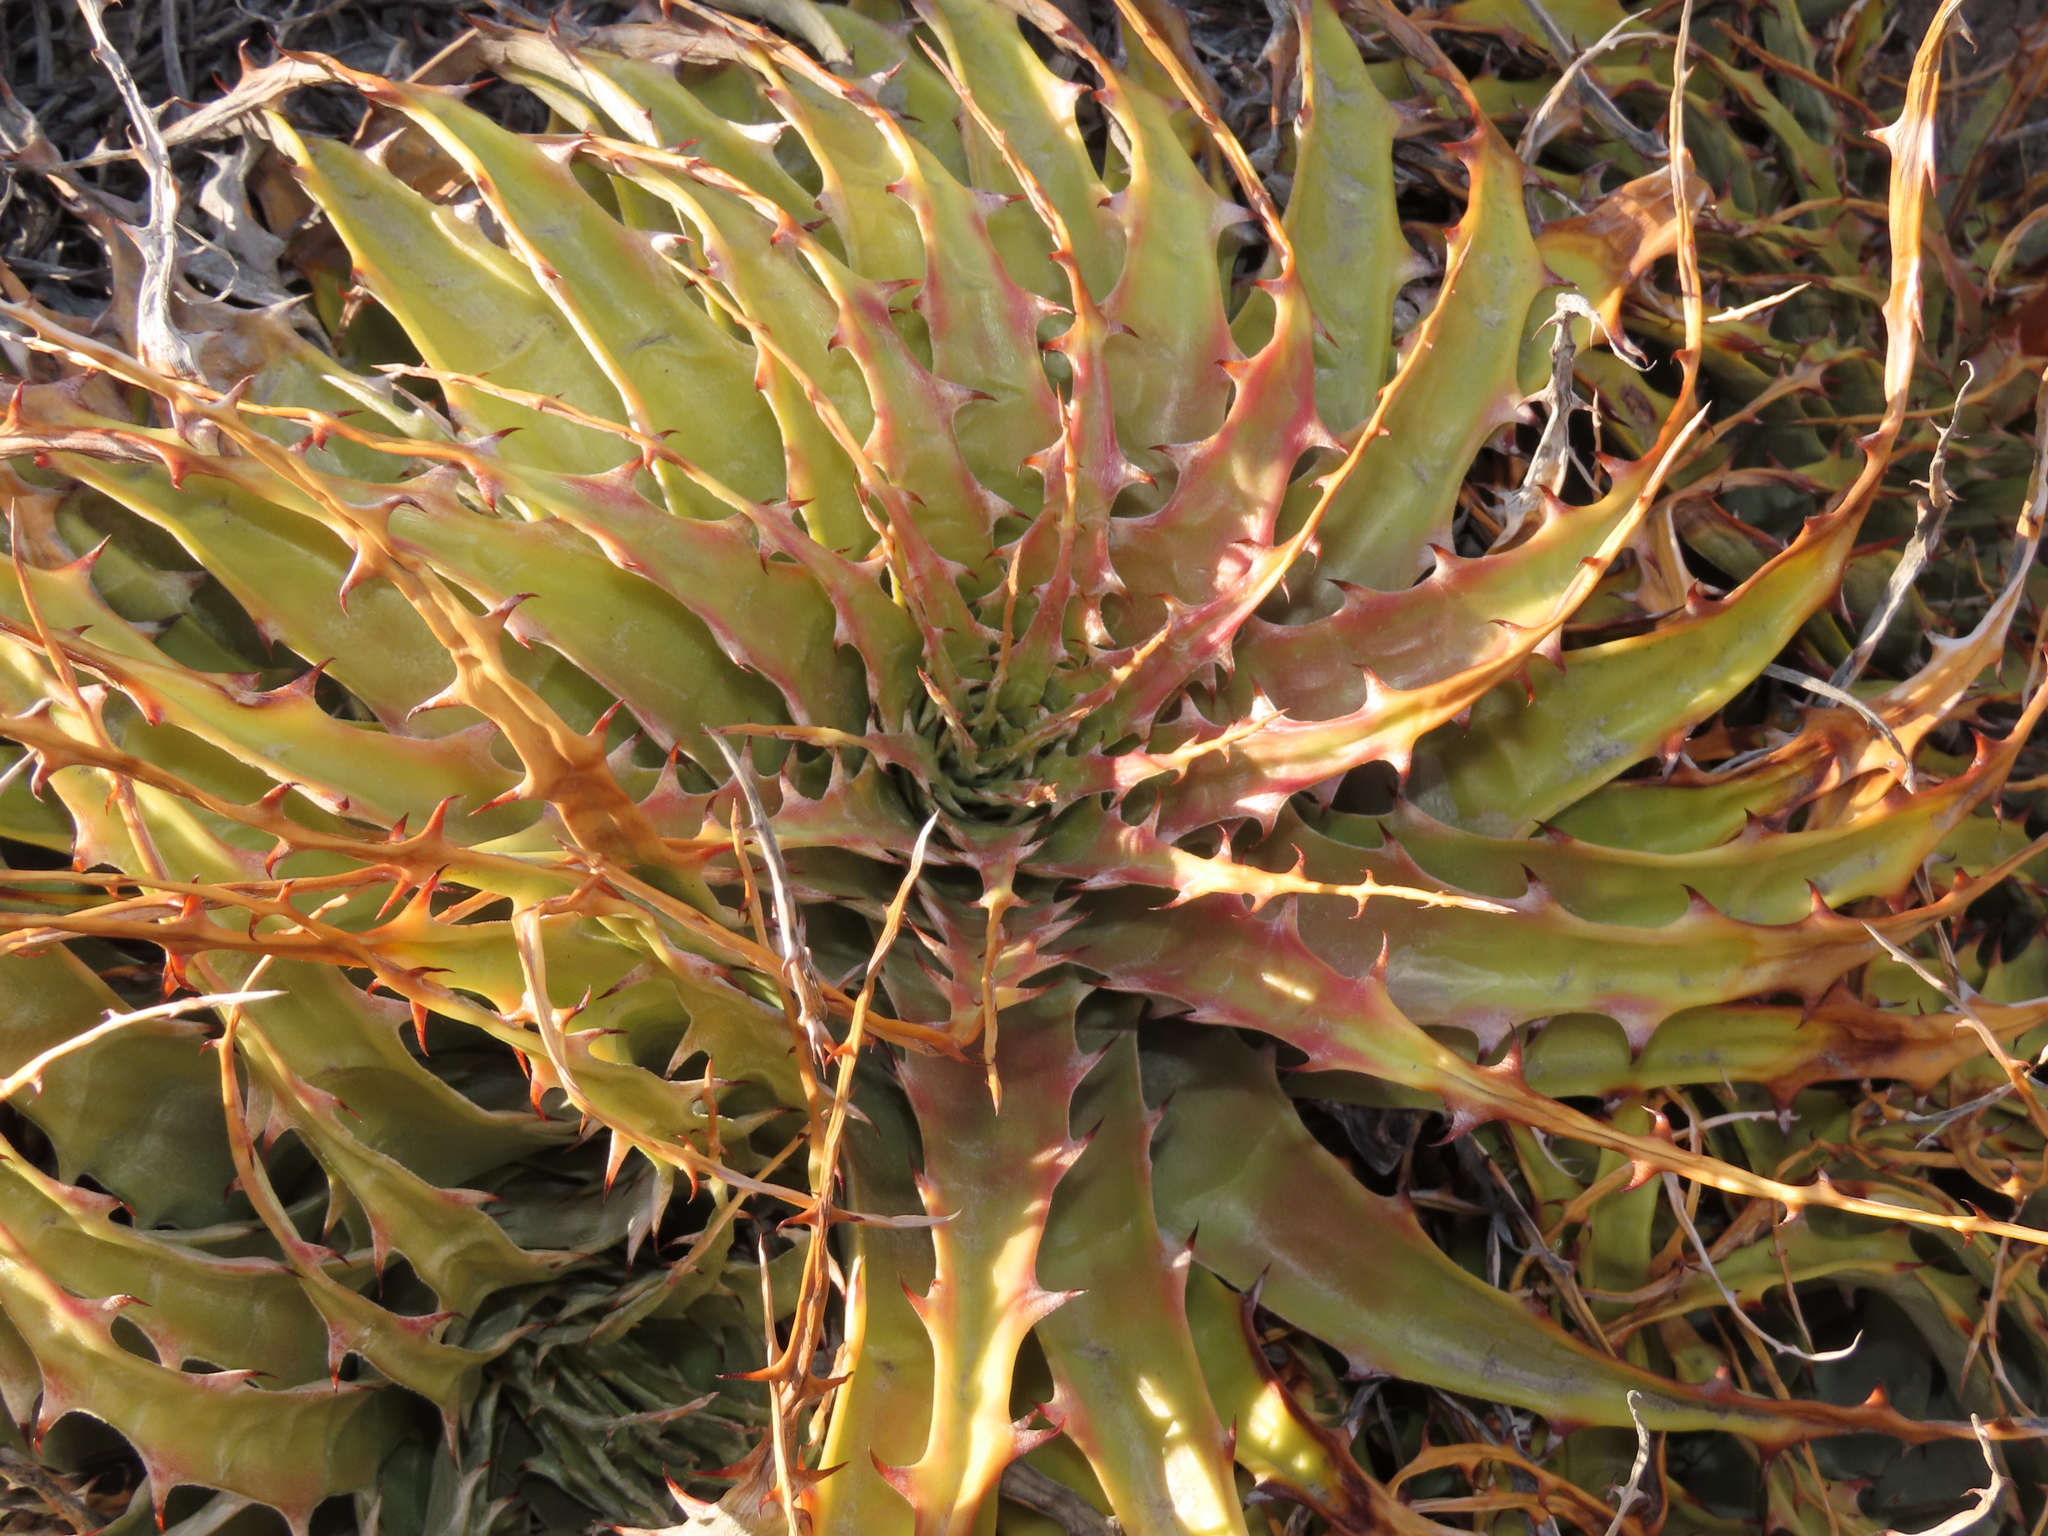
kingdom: Plantae
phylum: Tracheophyta
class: Liliopsida
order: Poales
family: Bromeliaceae
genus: Deuterocohnia
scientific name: Deuterocohnia chrysantha
